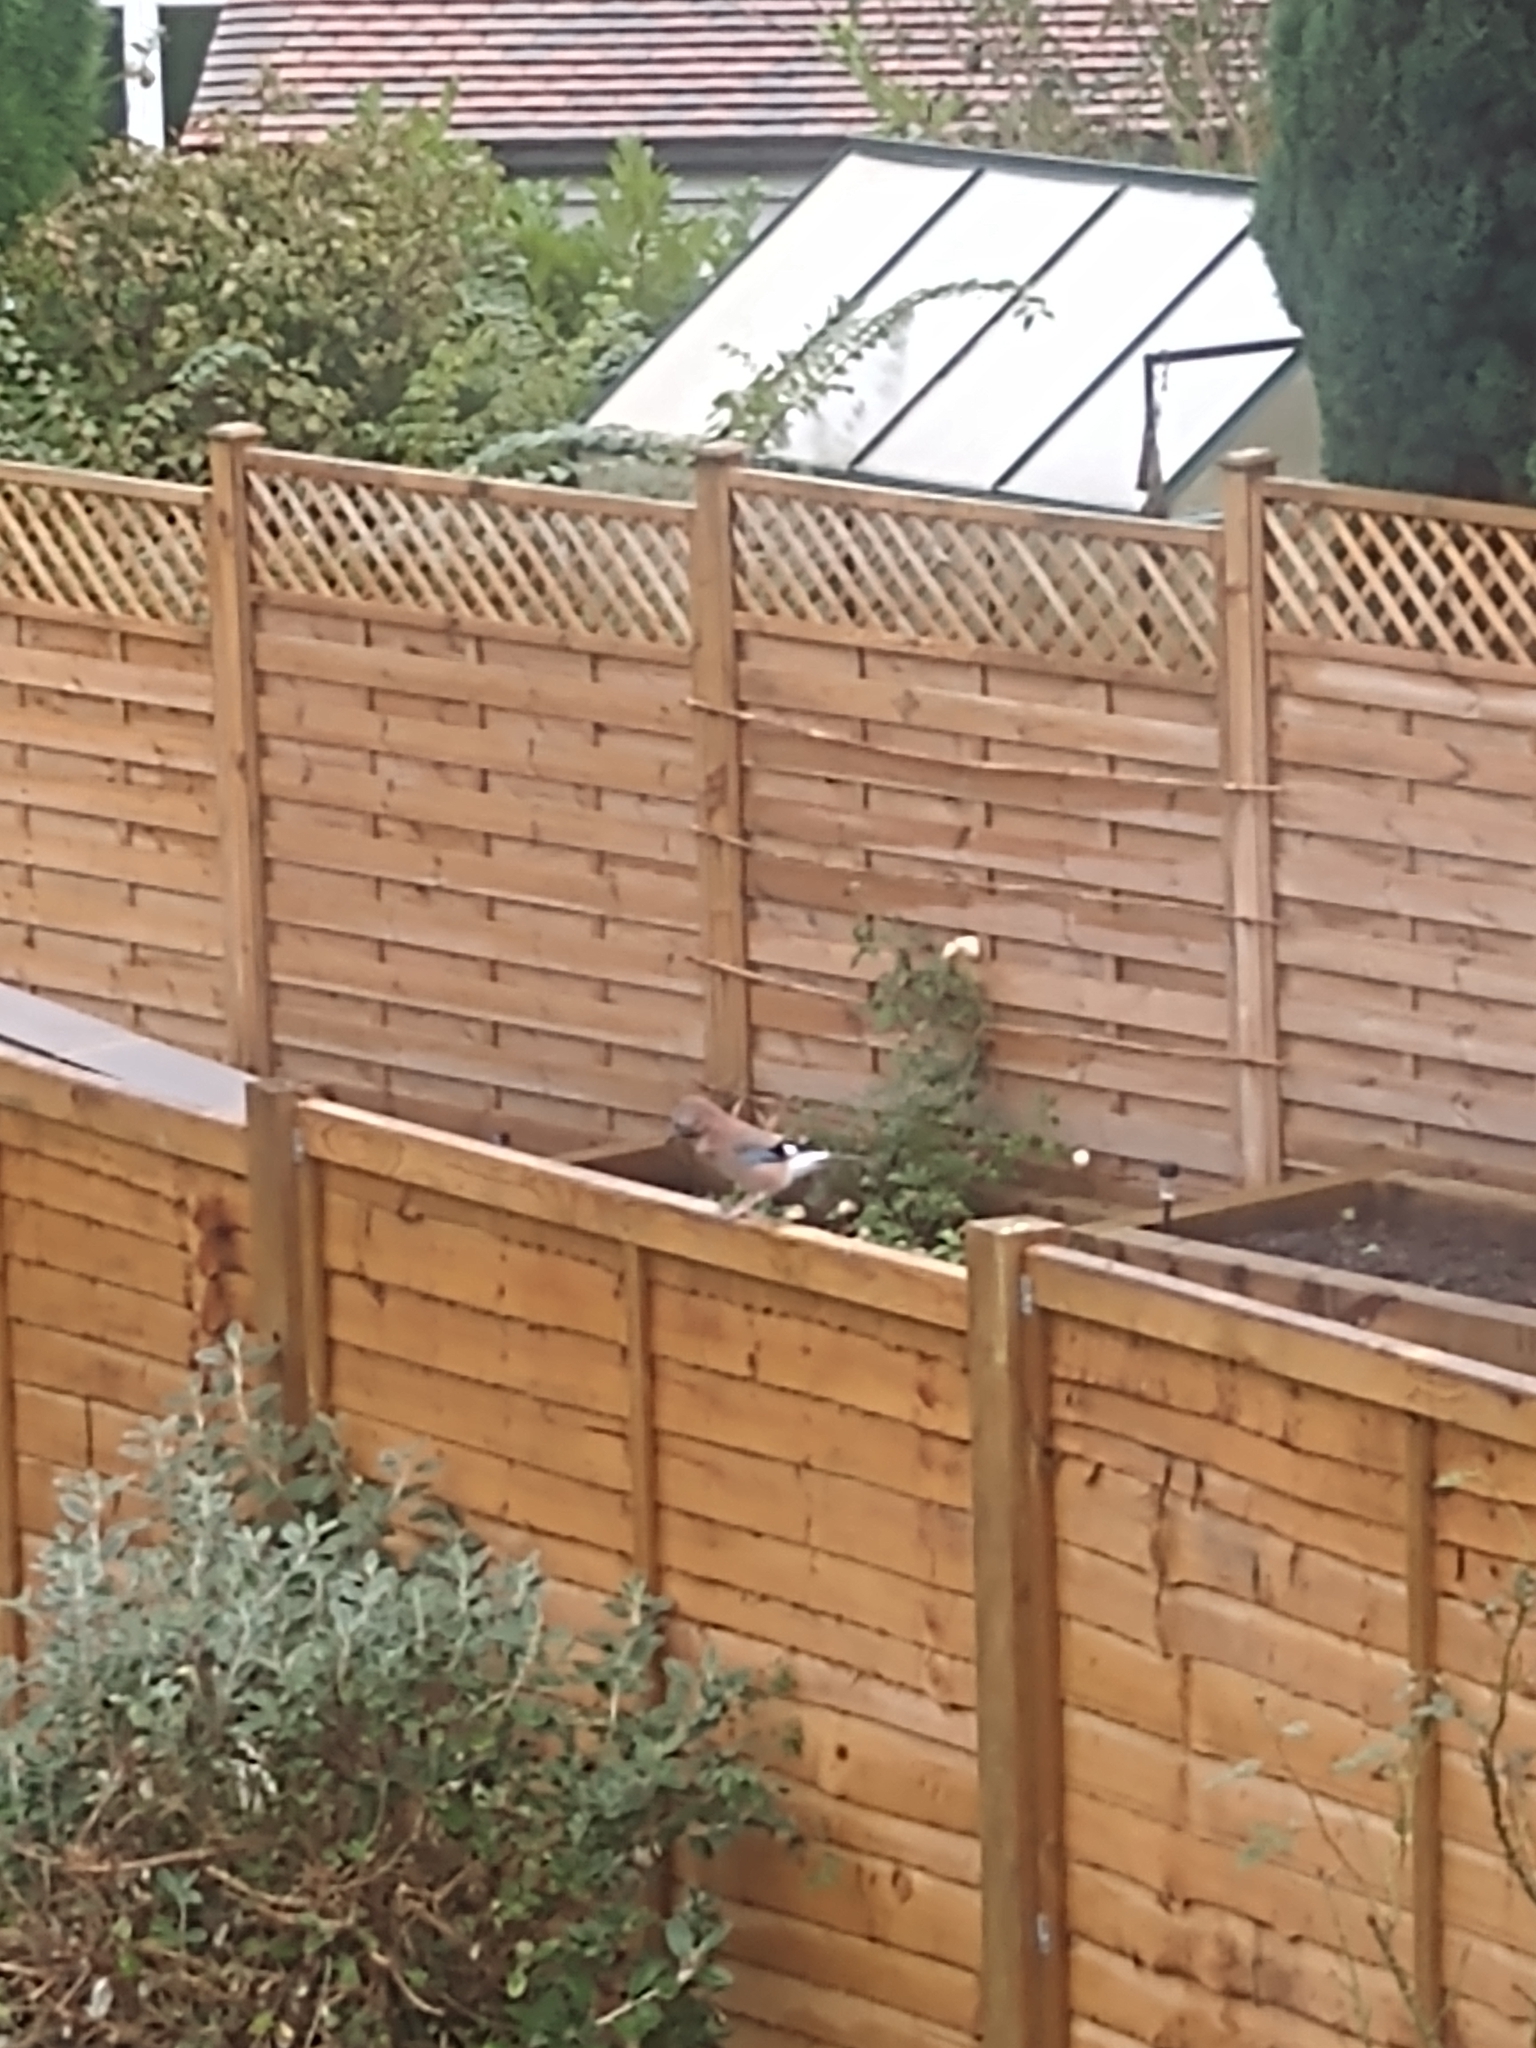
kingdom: Animalia
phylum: Chordata
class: Aves
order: Passeriformes
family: Corvidae
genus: Garrulus
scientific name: Garrulus glandarius
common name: Eurasian jay
